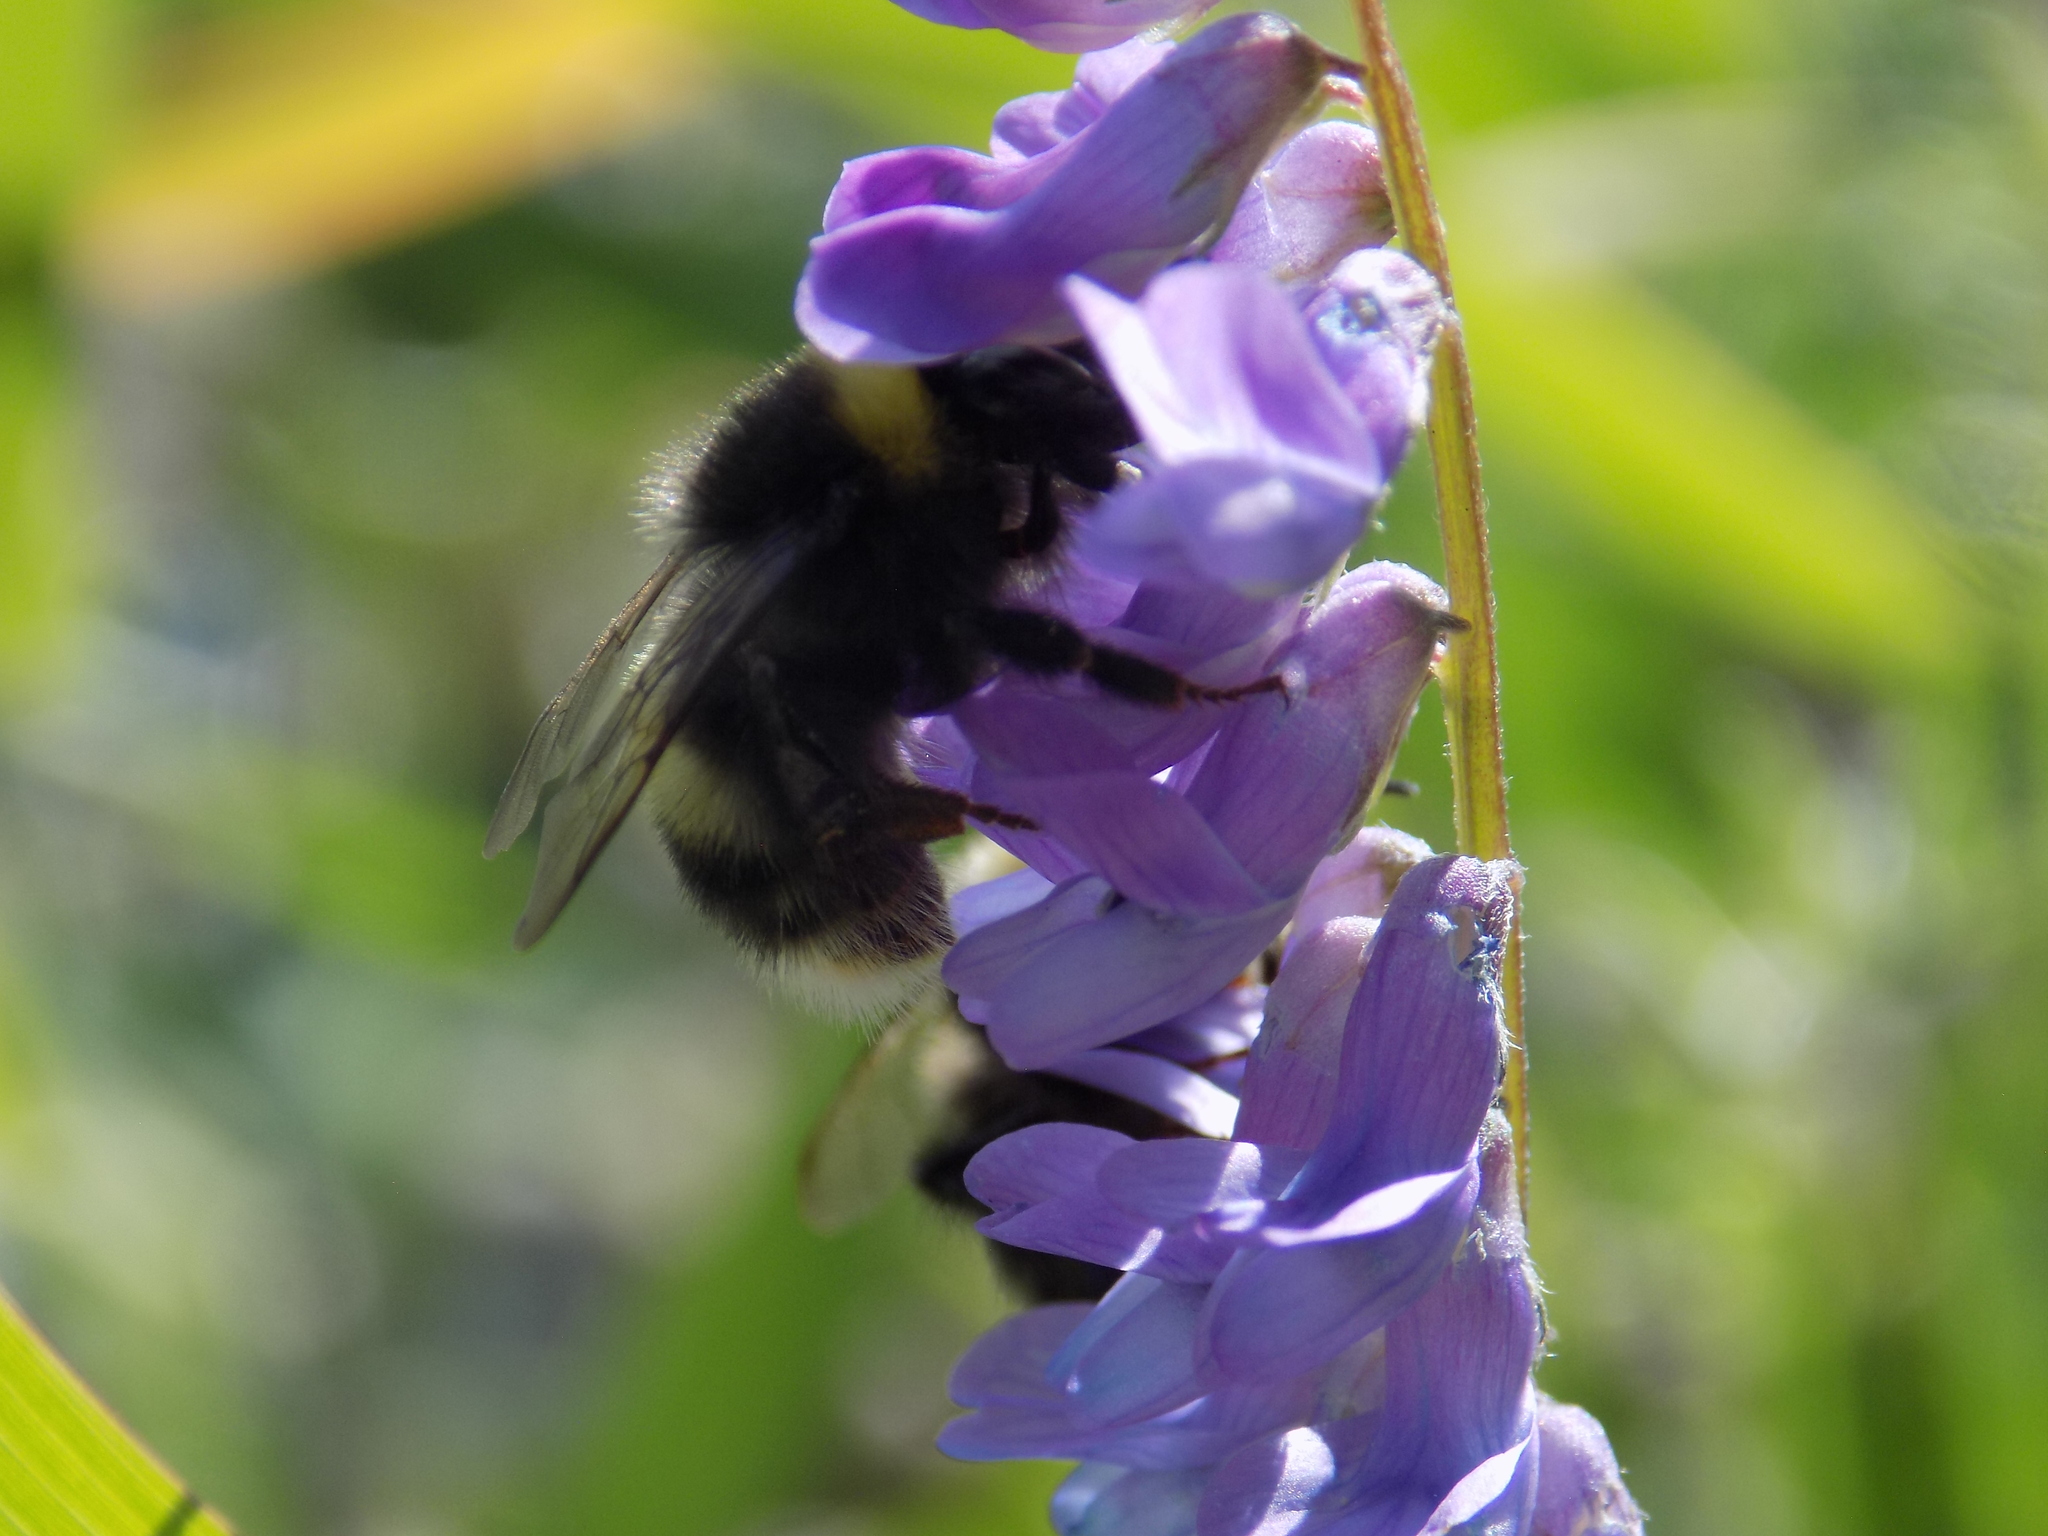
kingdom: Animalia
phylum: Arthropoda
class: Insecta
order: Hymenoptera
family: Apidae
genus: Bombus
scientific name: Bombus
